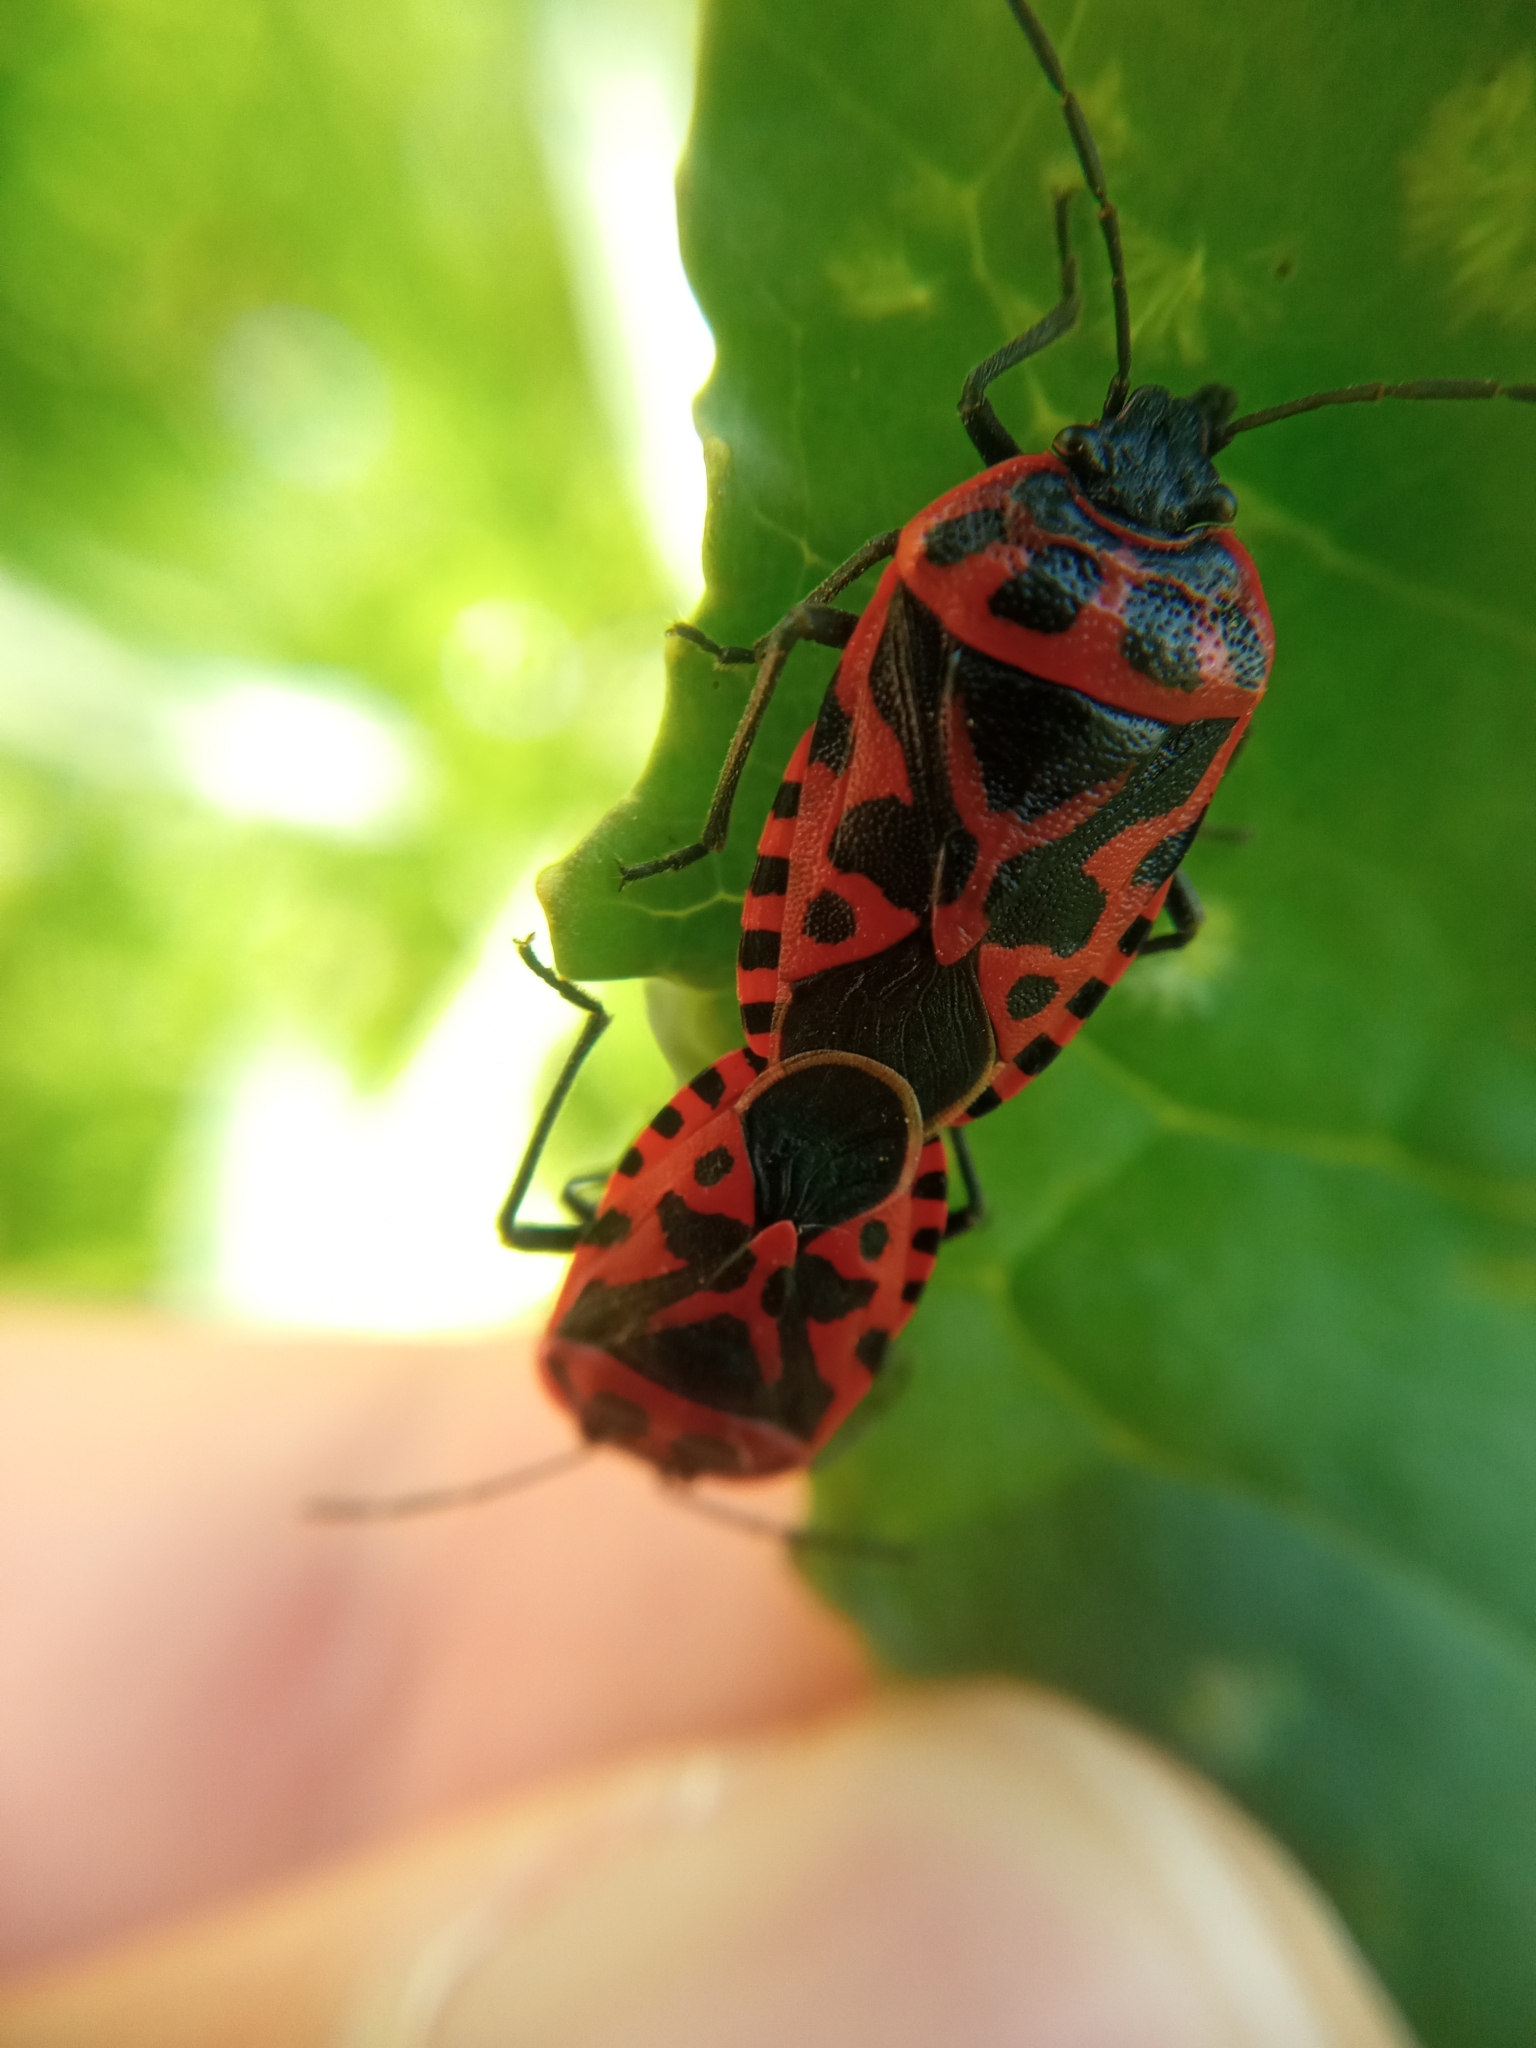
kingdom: Animalia
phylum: Arthropoda
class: Insecta
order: Hemiptera
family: Pentatomidae
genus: Eurydema
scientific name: Eurydema ventralis
